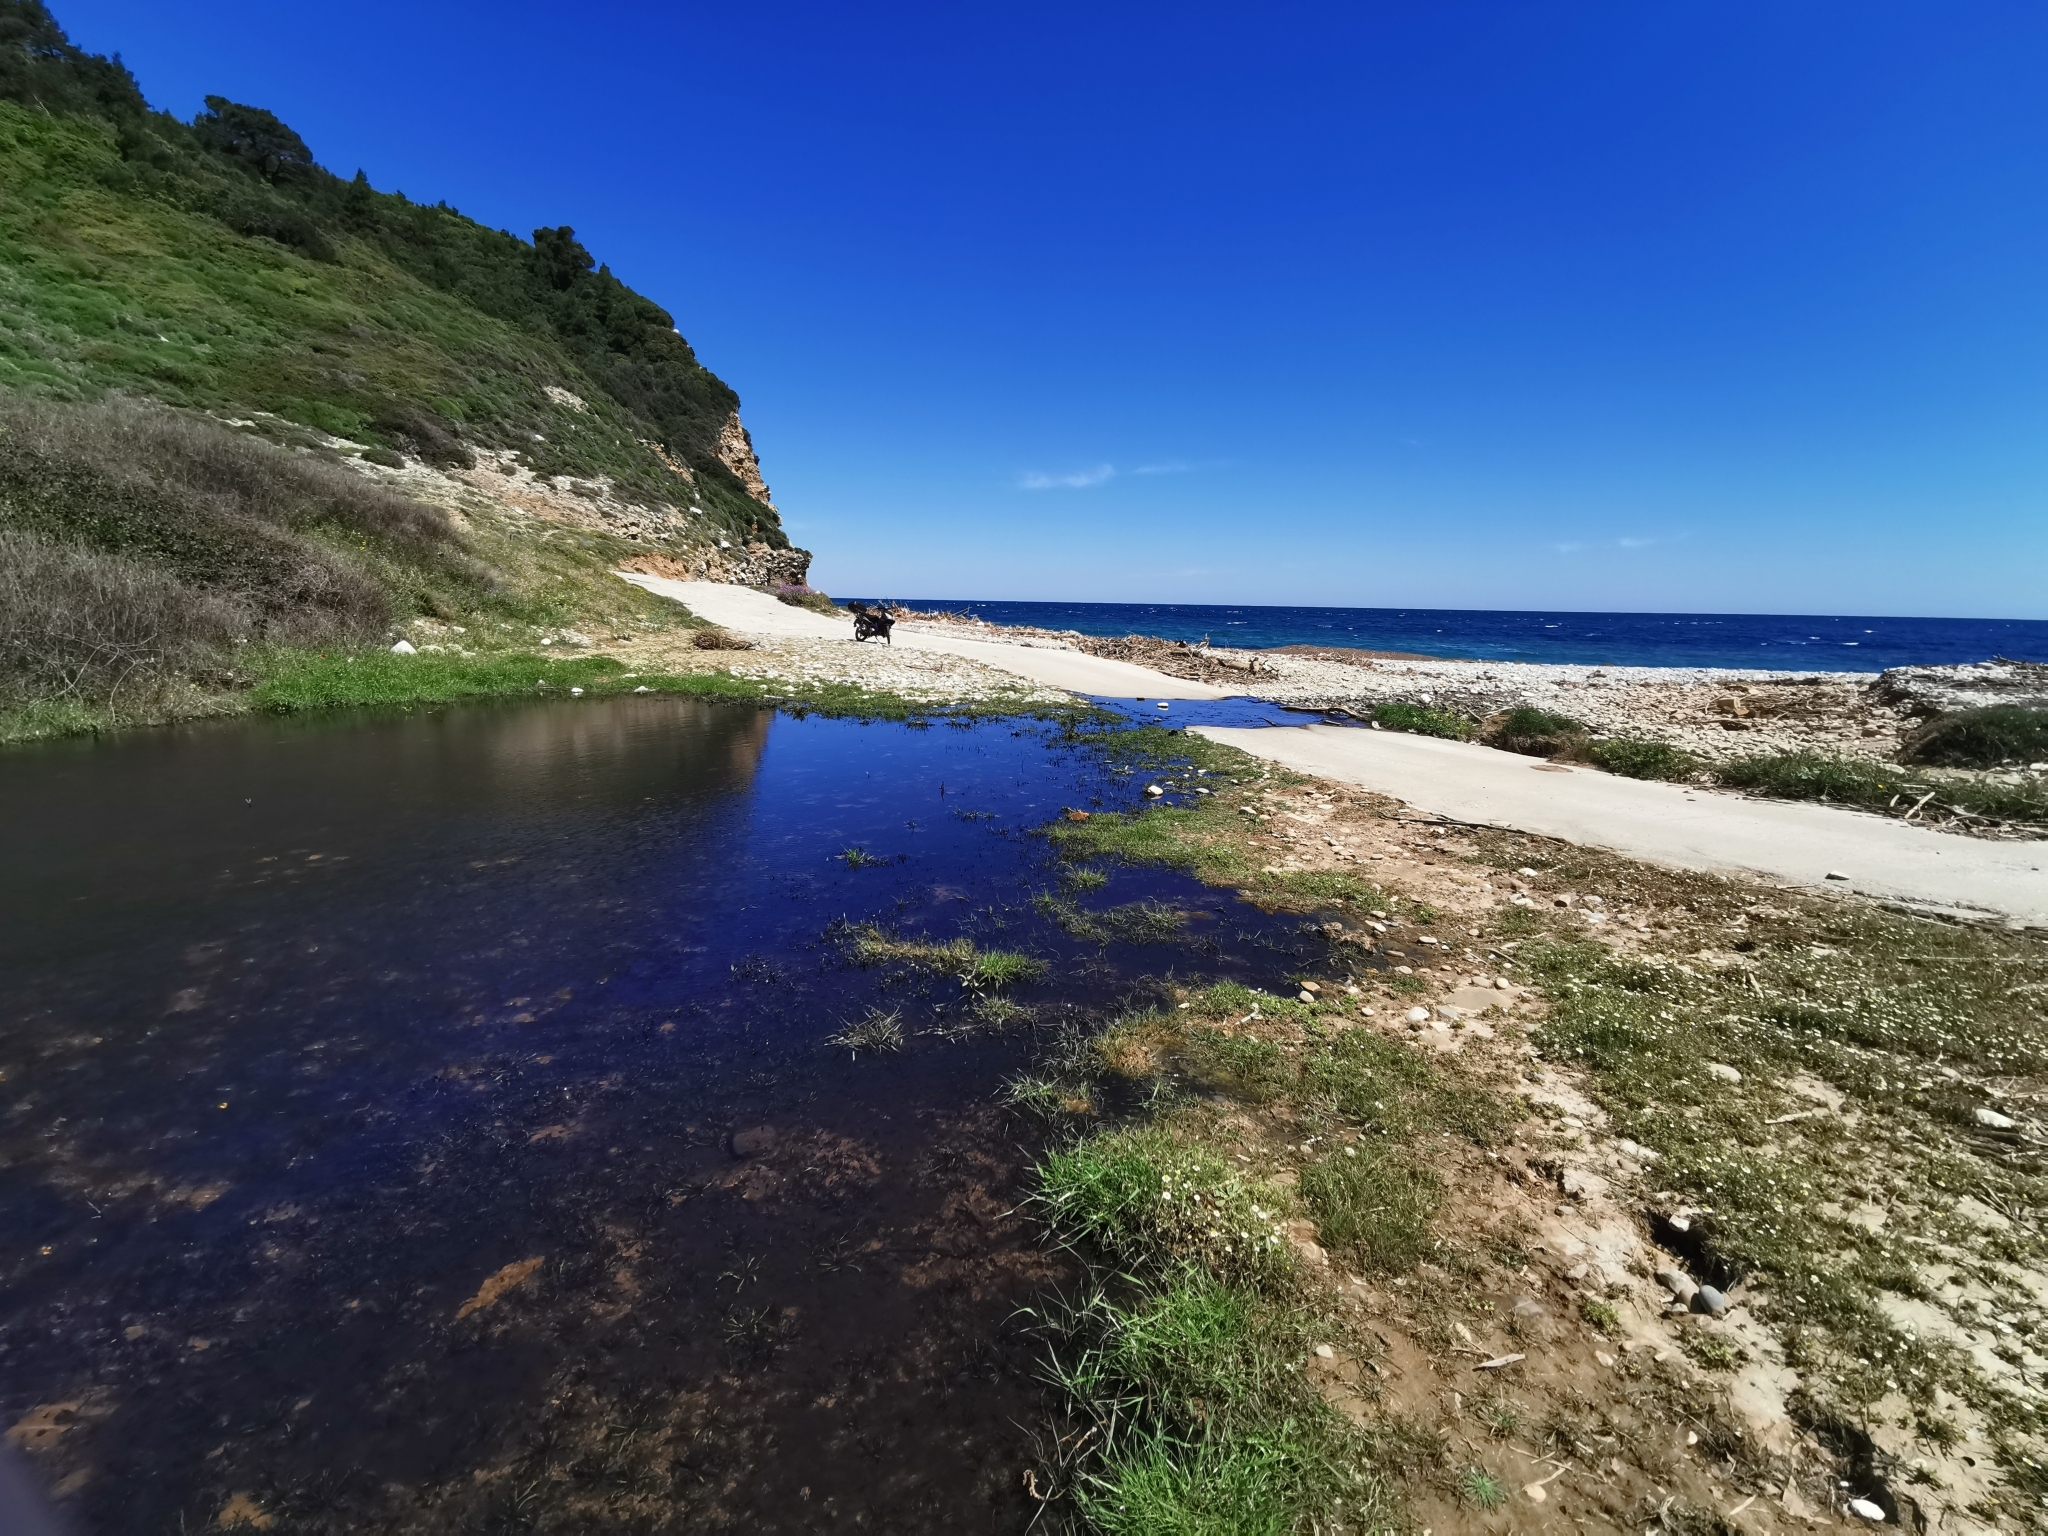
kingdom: Animalia
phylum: Chordata
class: Amphibia
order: Anura
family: Bufonidae
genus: Bufotes
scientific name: Bufotes viridis
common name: European green toad
